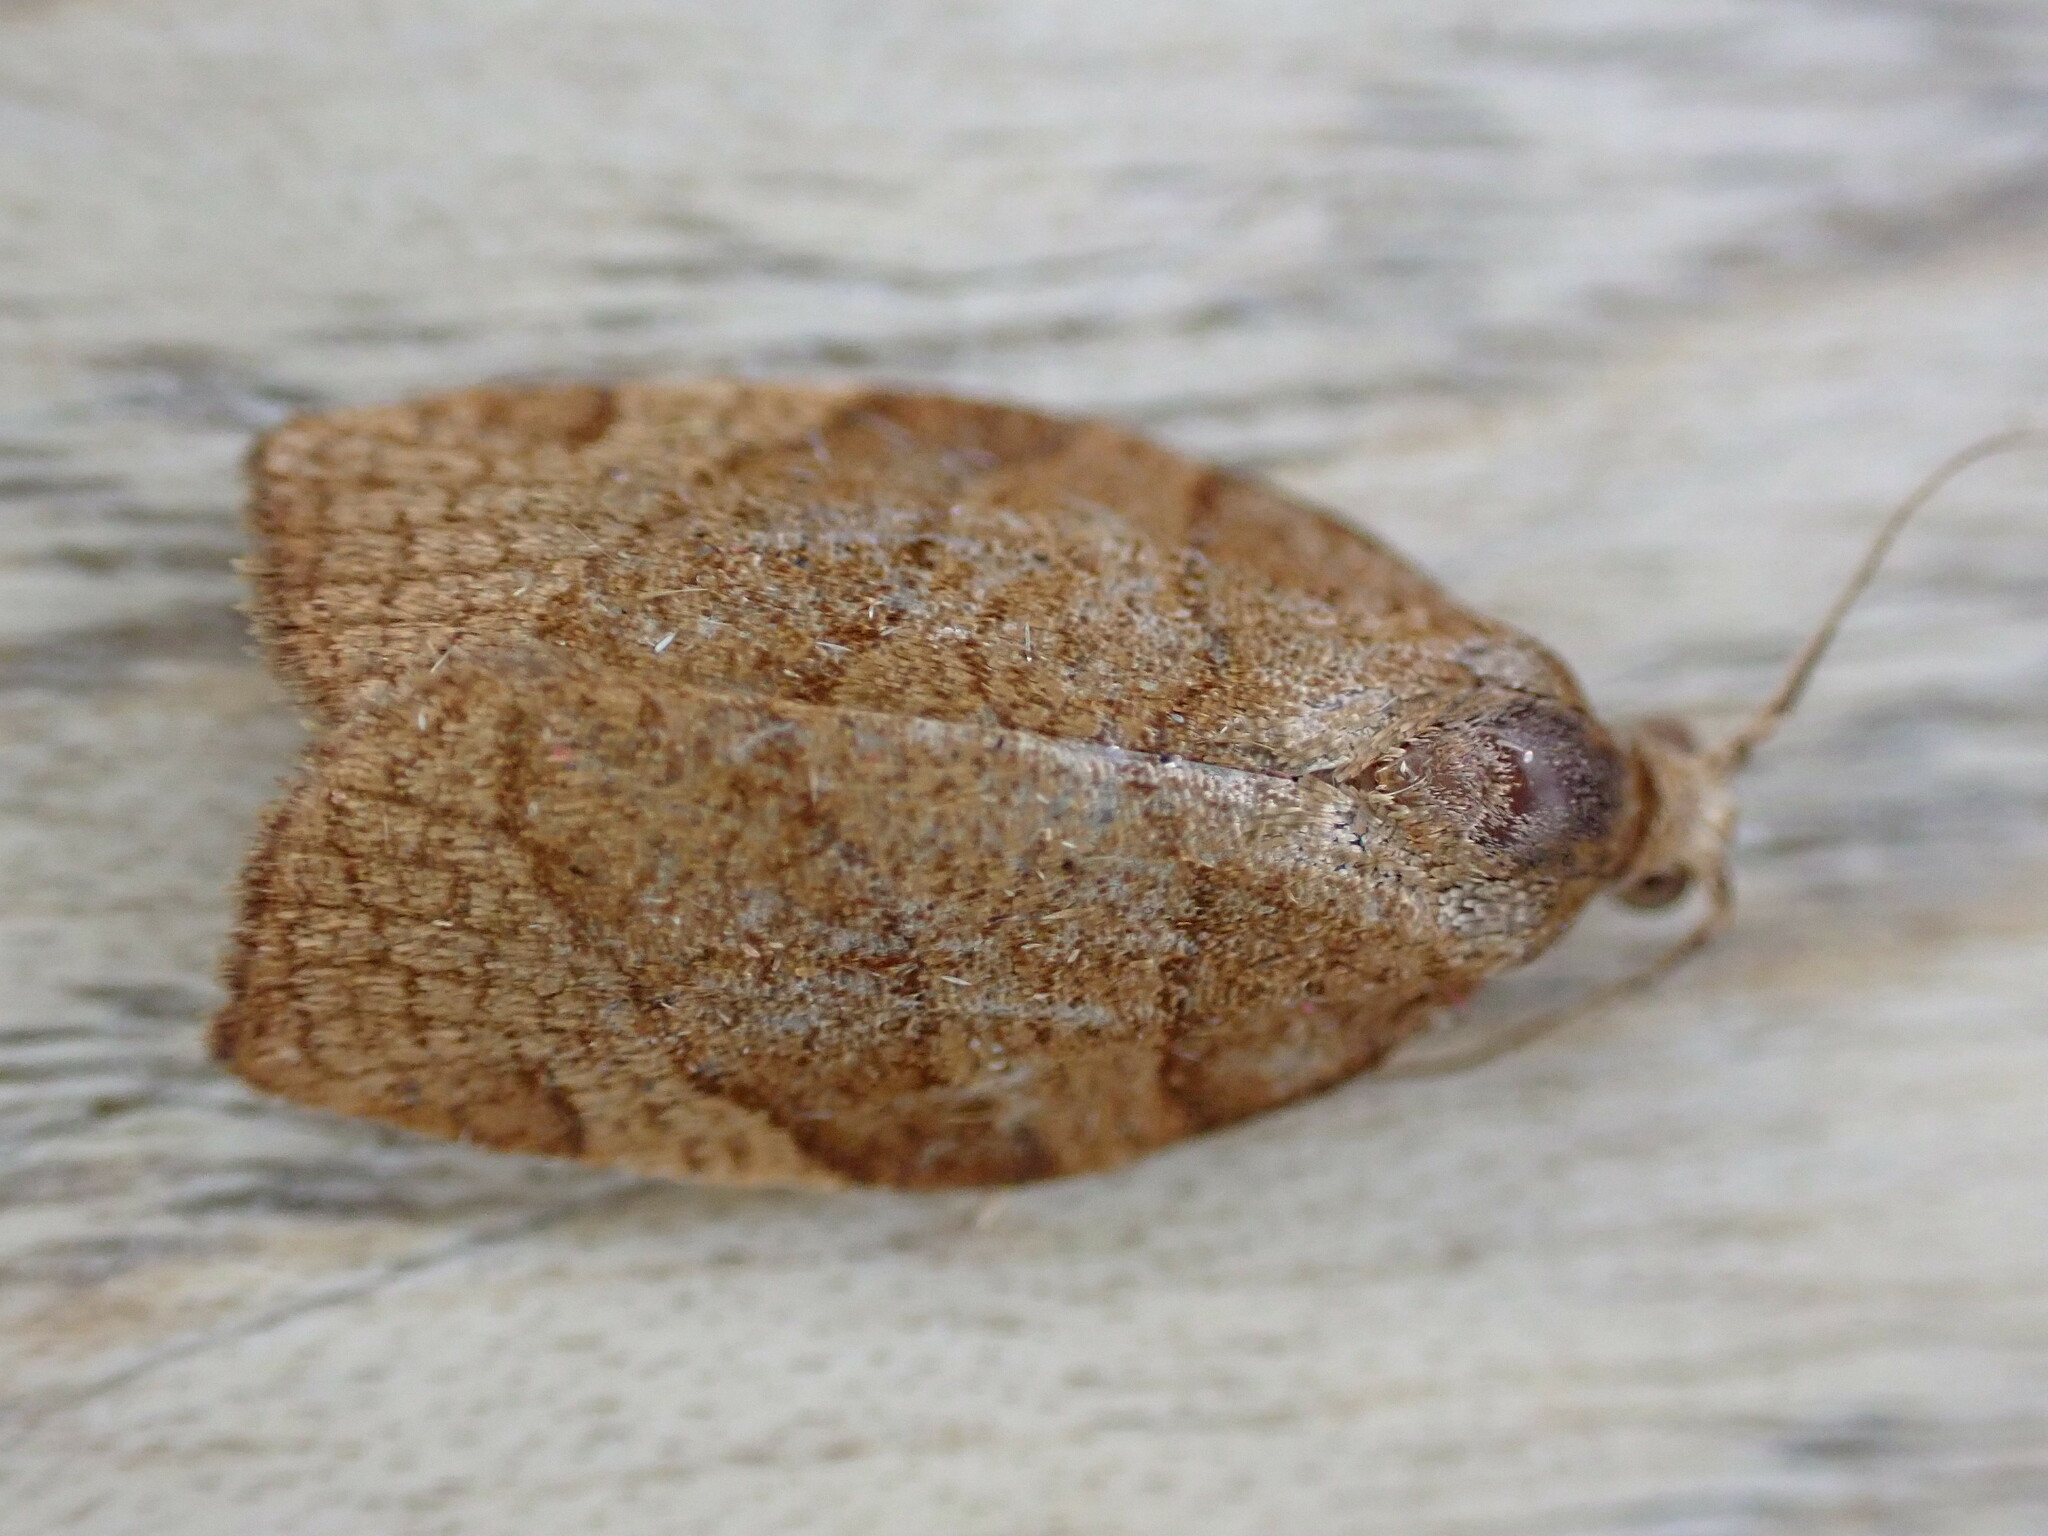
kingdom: Animalia
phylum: Arthropoda
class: Insecta
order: Lepidoptera
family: Tortricidae
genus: Pandemis
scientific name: Pandemis cerasana
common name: Barred fruit-tree tortrix
